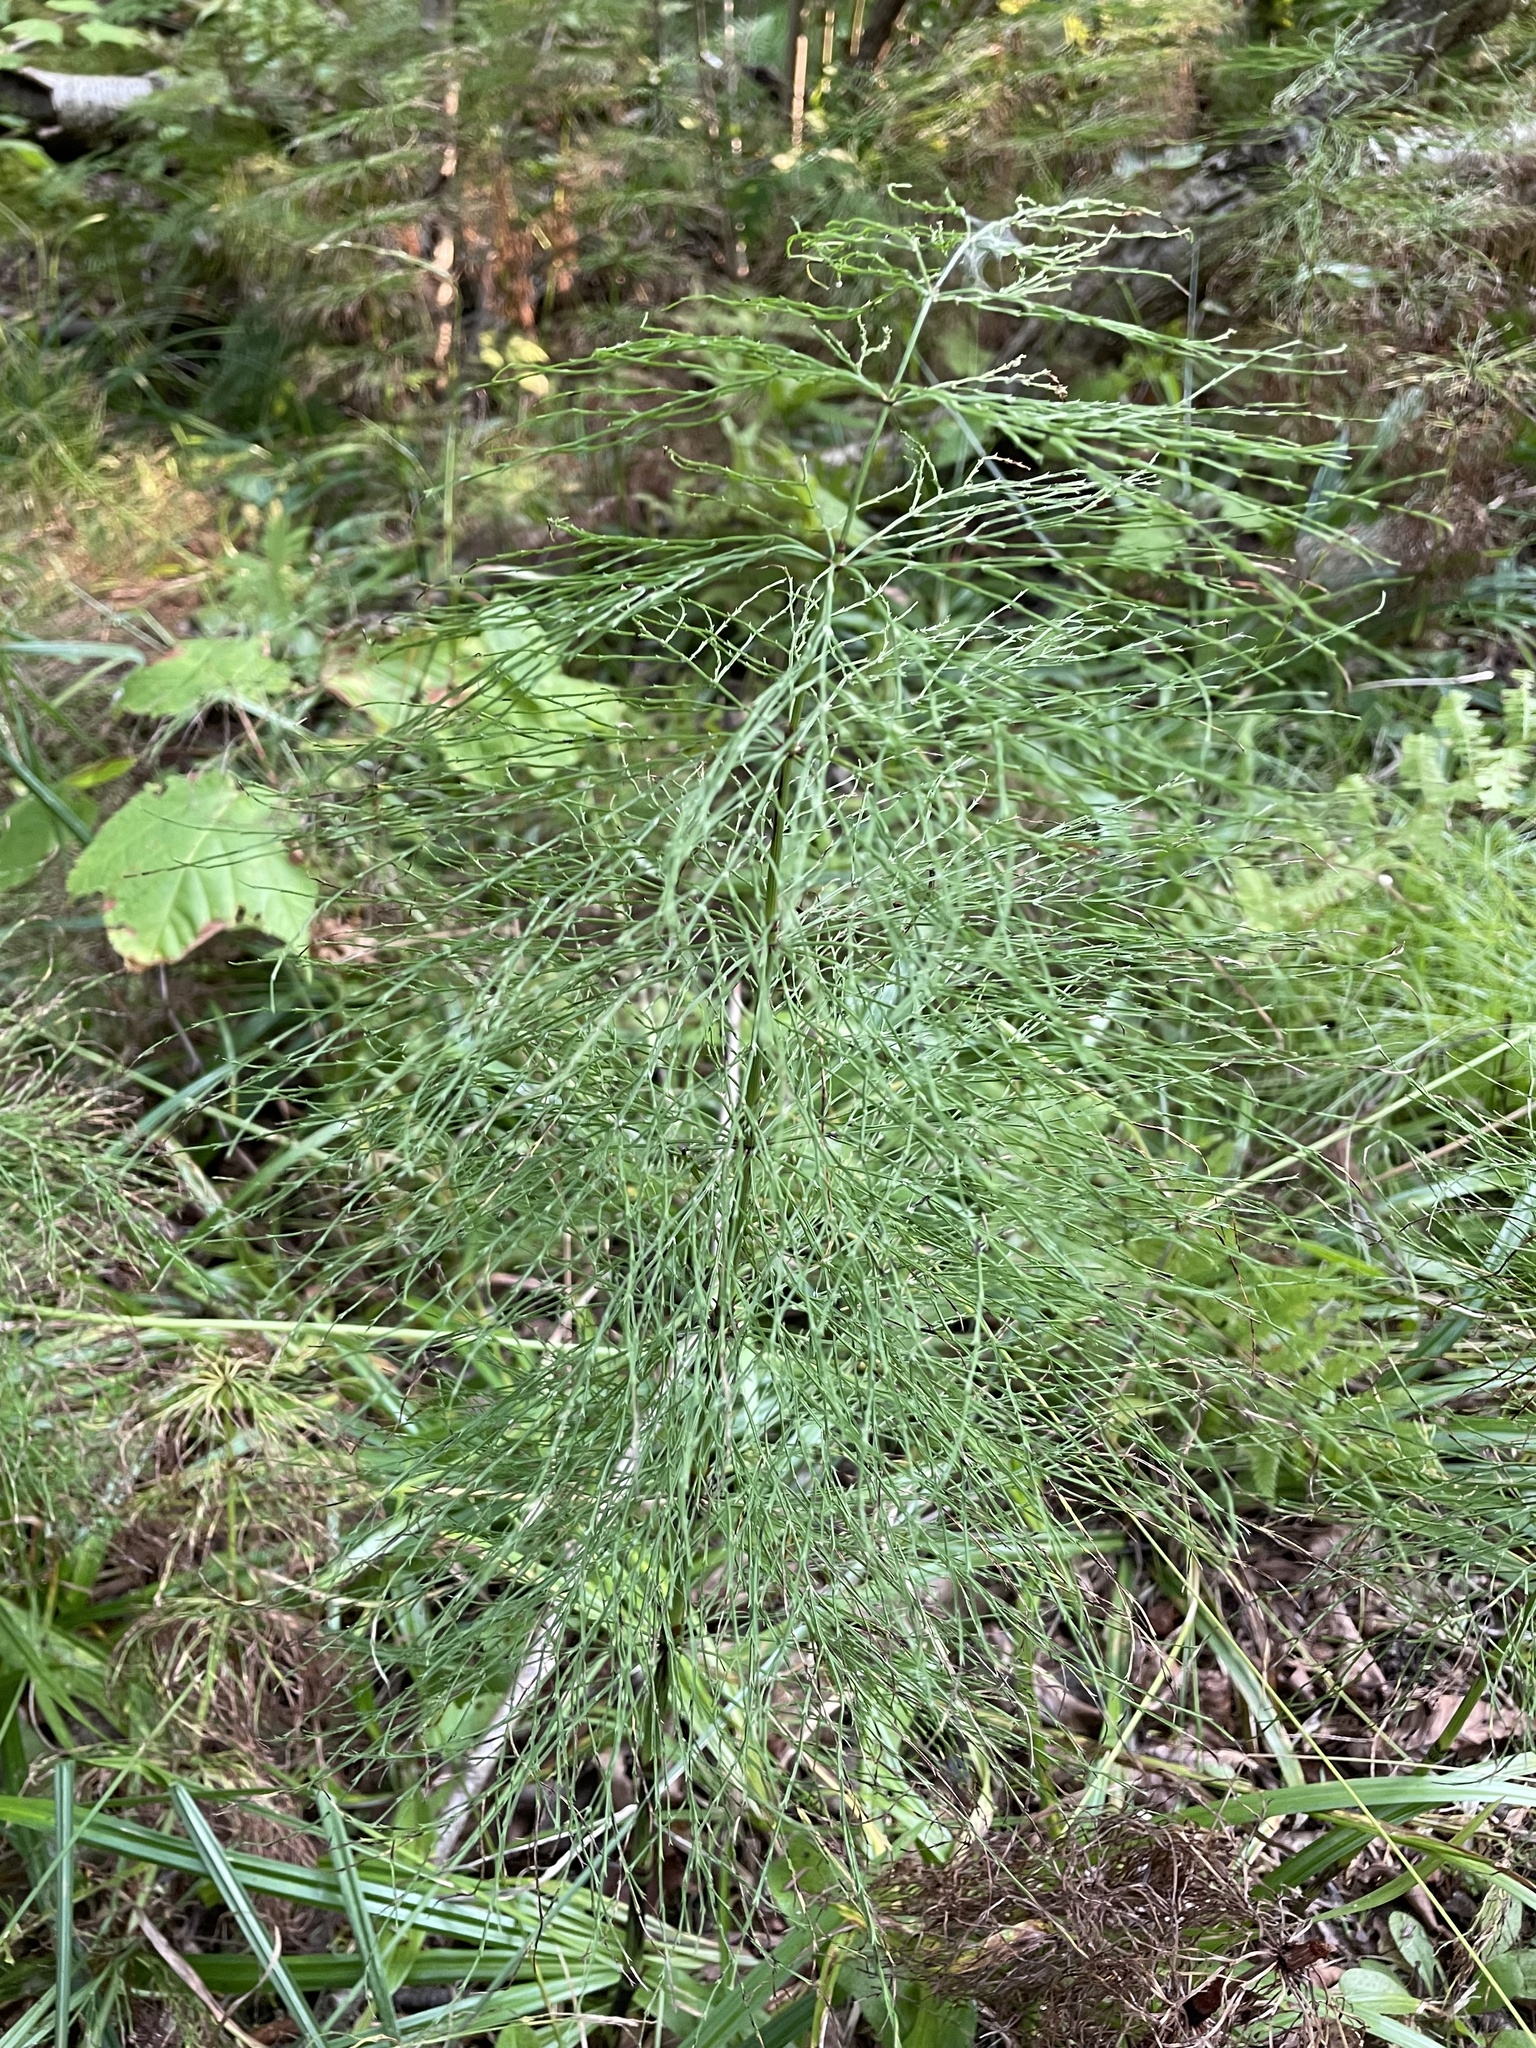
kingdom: Plantae
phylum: Tracheophyta
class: Polypodiopsida
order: Equisetales
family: Equisetaceae
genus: Equisetum
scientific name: Equisetum sylvaticum
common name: Wood horsetail
